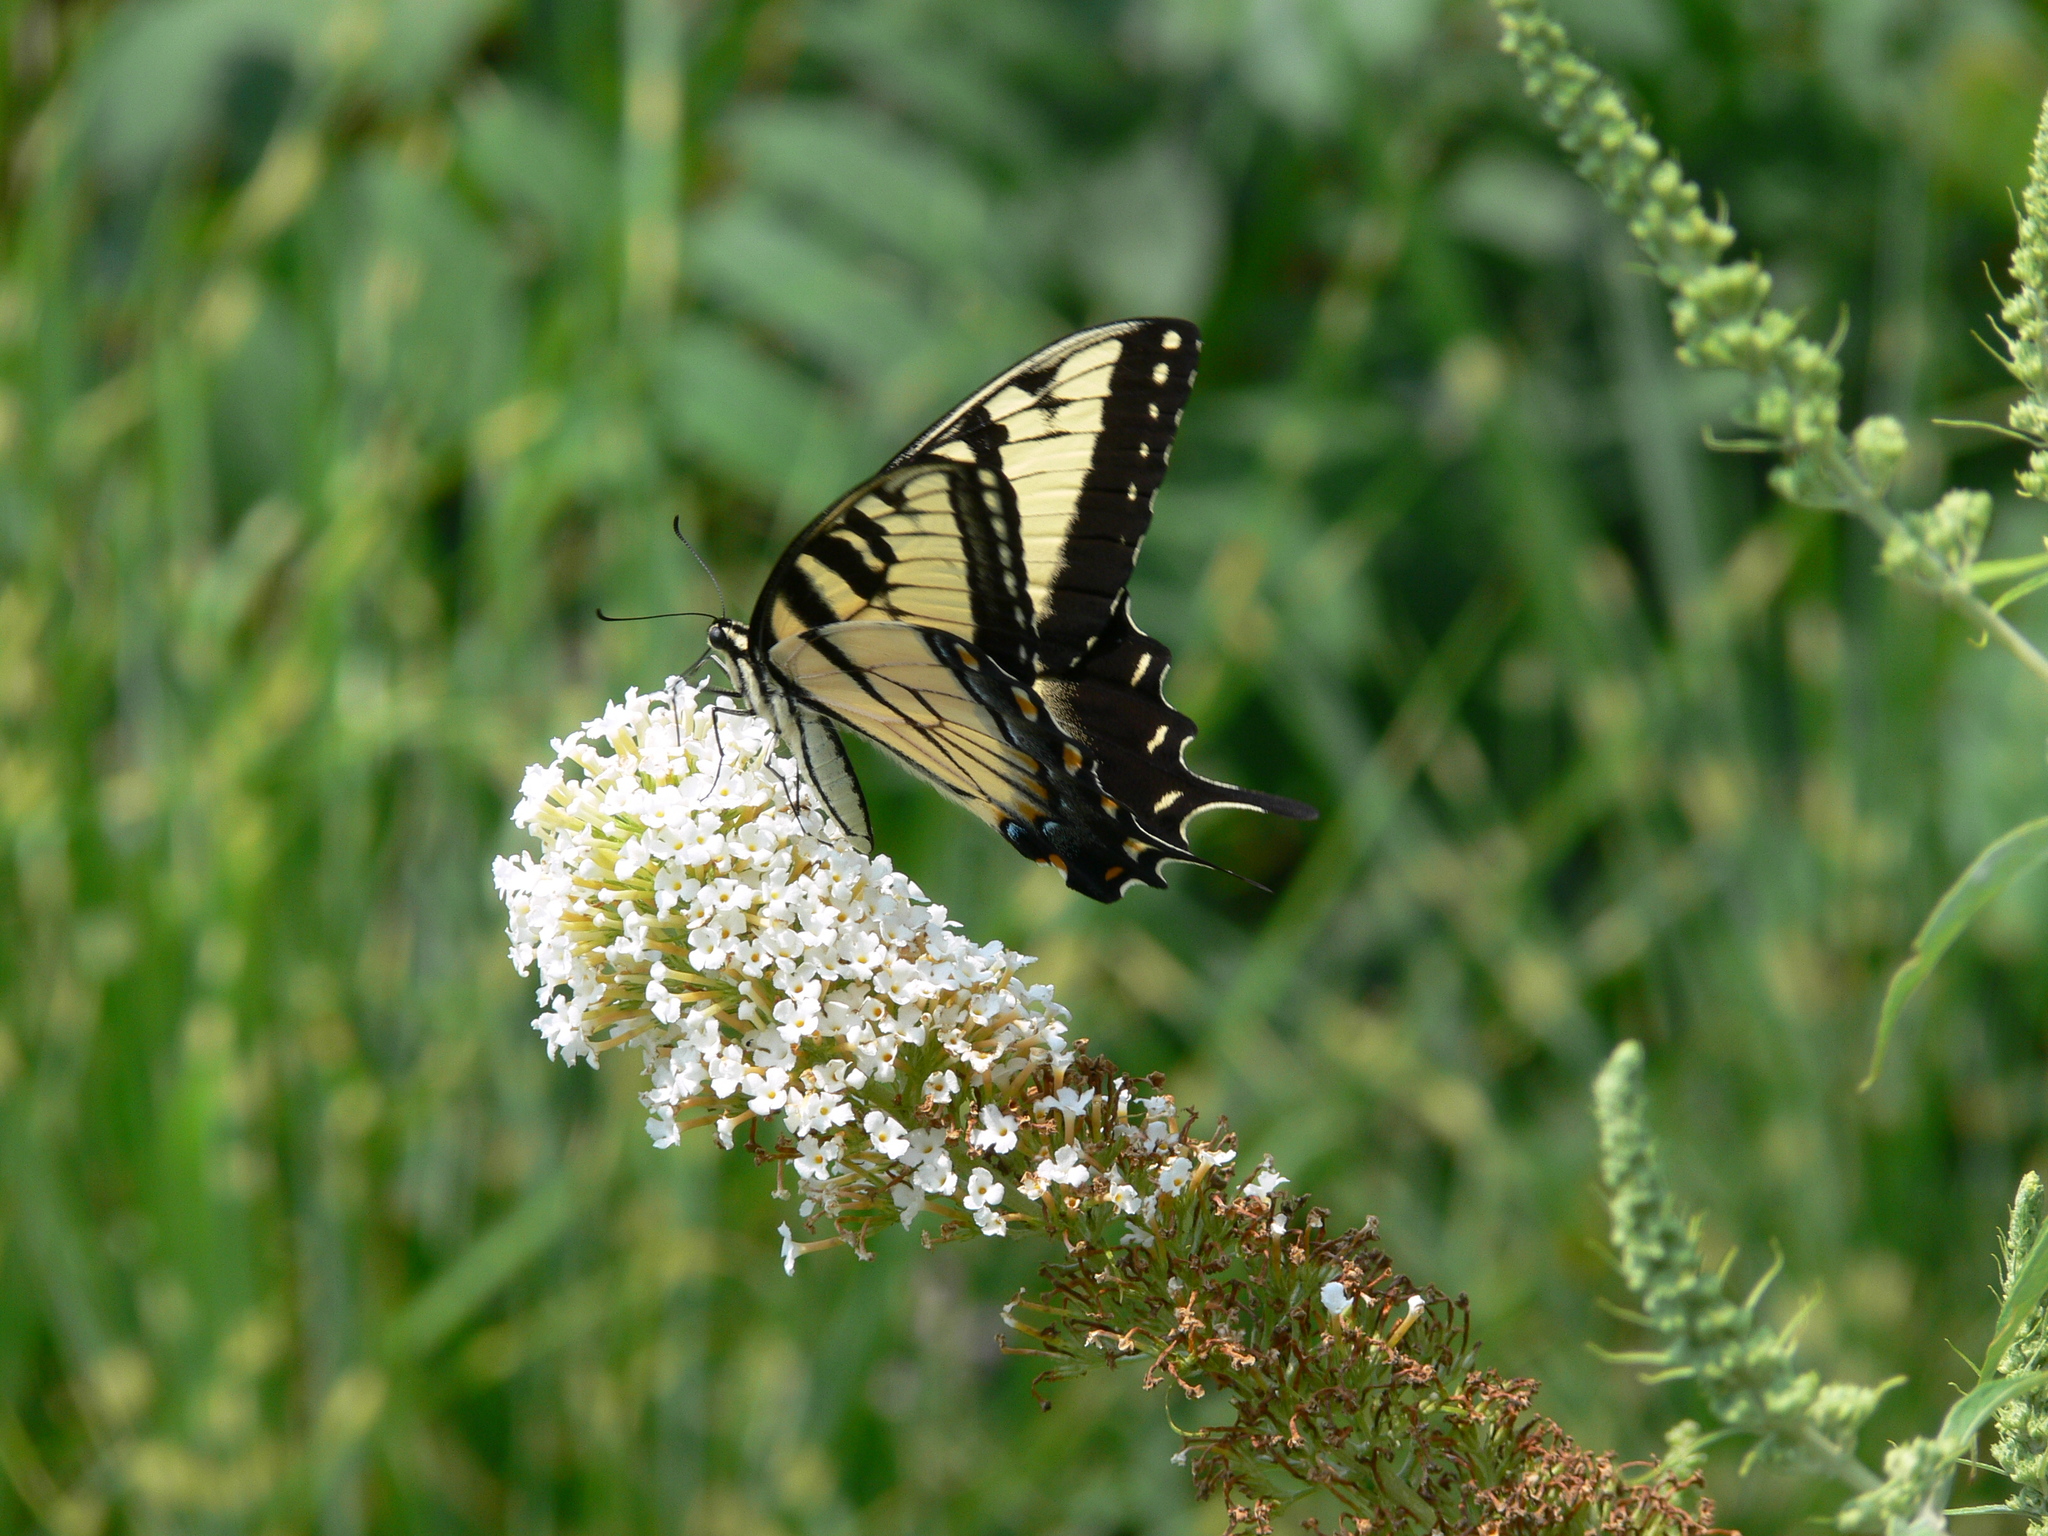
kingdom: Animalia
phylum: Arthropoda
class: Insecta
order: Lepidoptera
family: Papilionidae
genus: Papilio
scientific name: Papilio glaucus
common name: Tiger swallowtail
